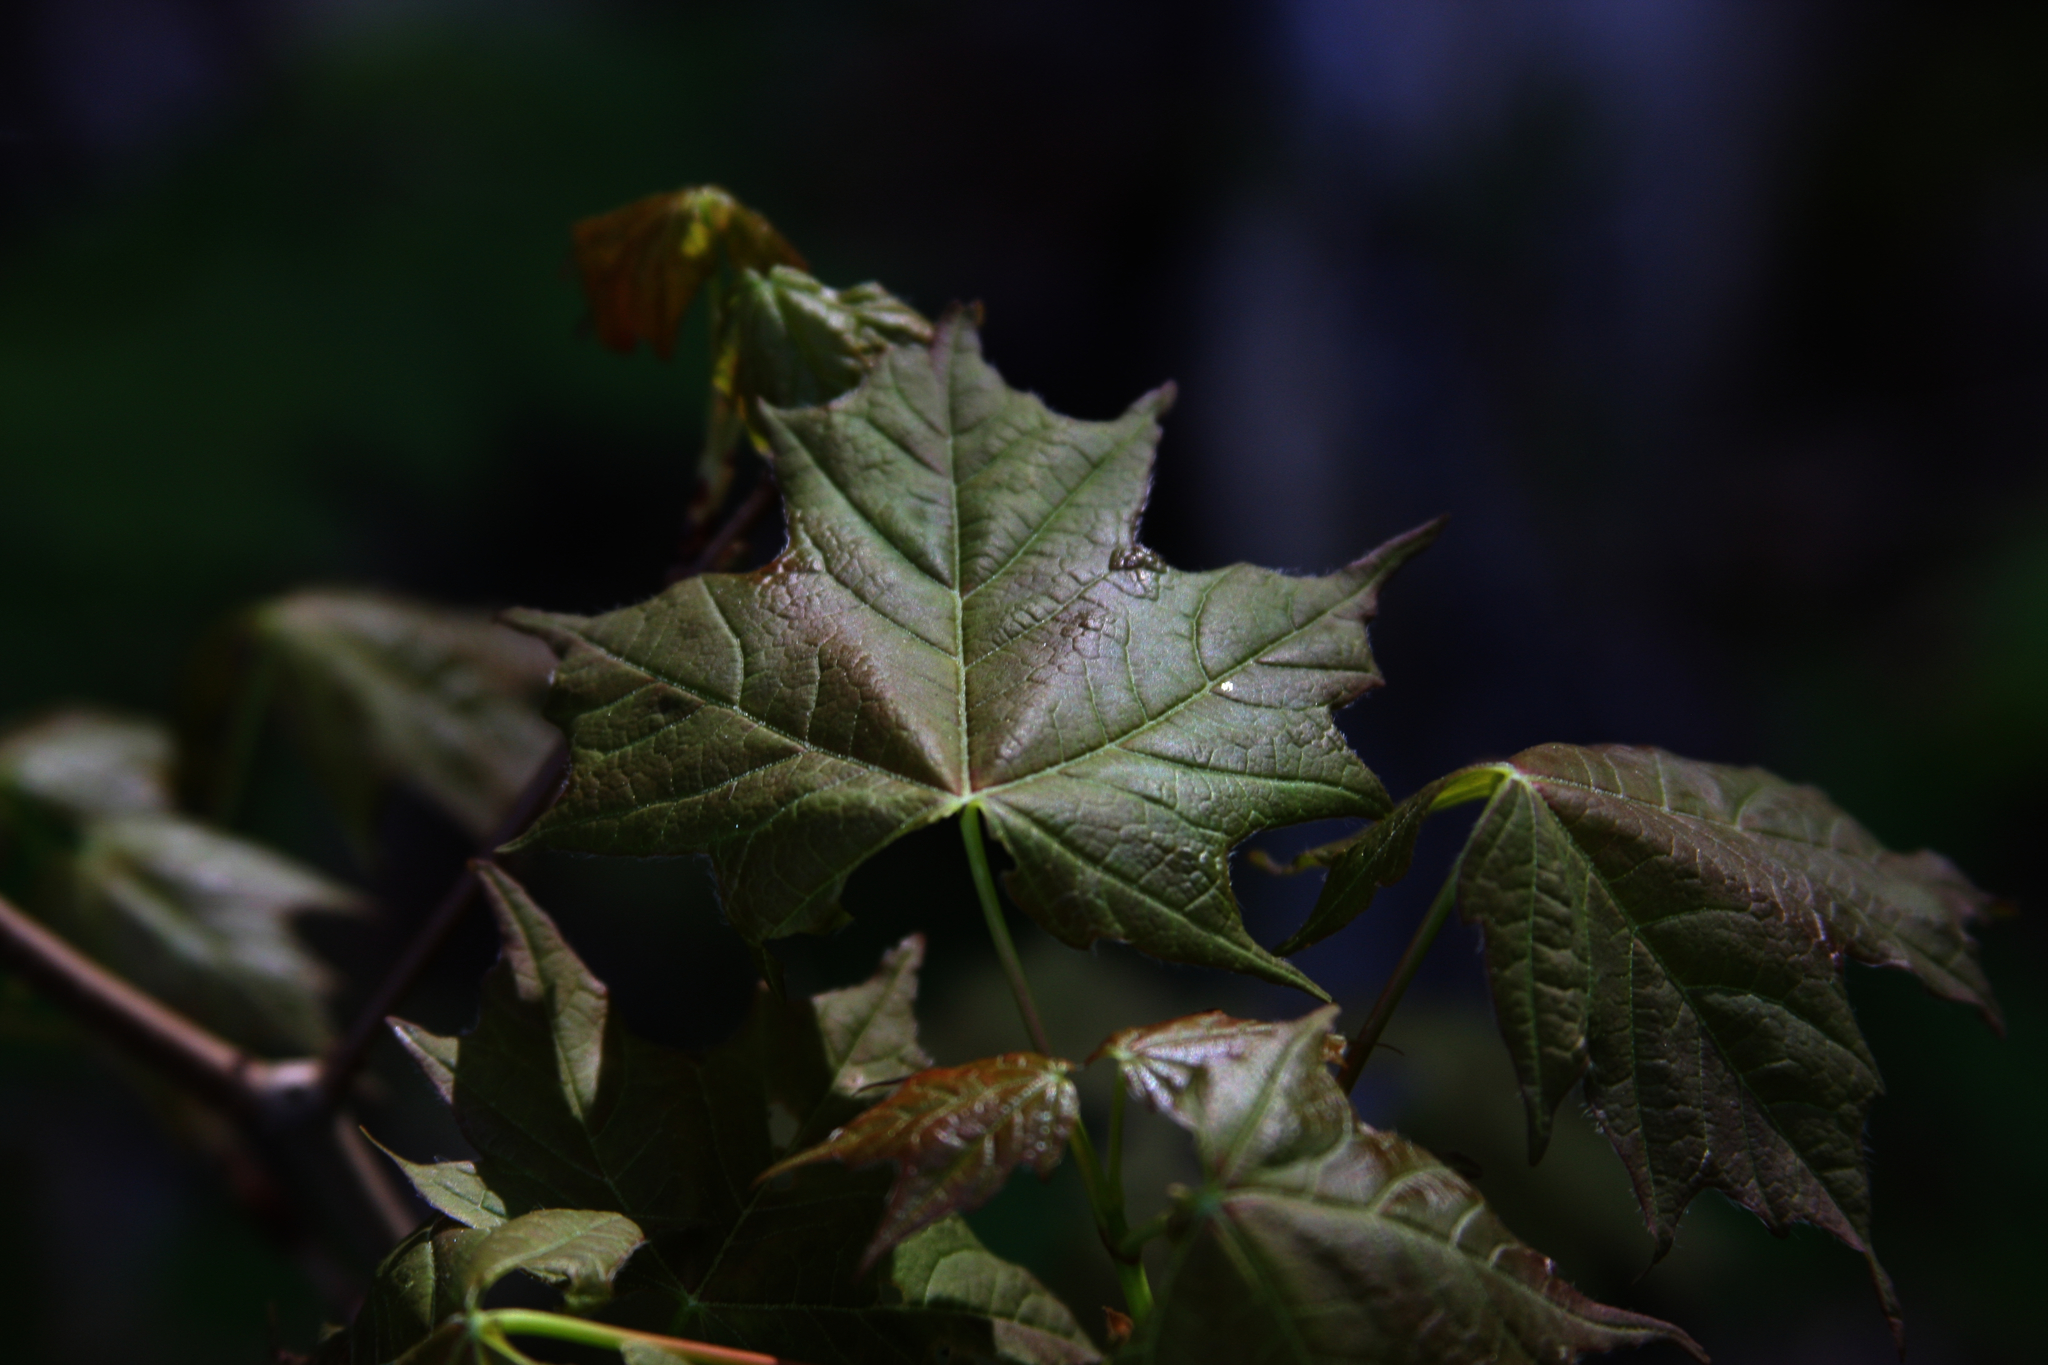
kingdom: Plantae
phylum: Tracheophyta
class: Magnoliopsida
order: Sapindales
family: Sapindaceae
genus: Acer
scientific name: Acer saccharum
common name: Sugar maple
